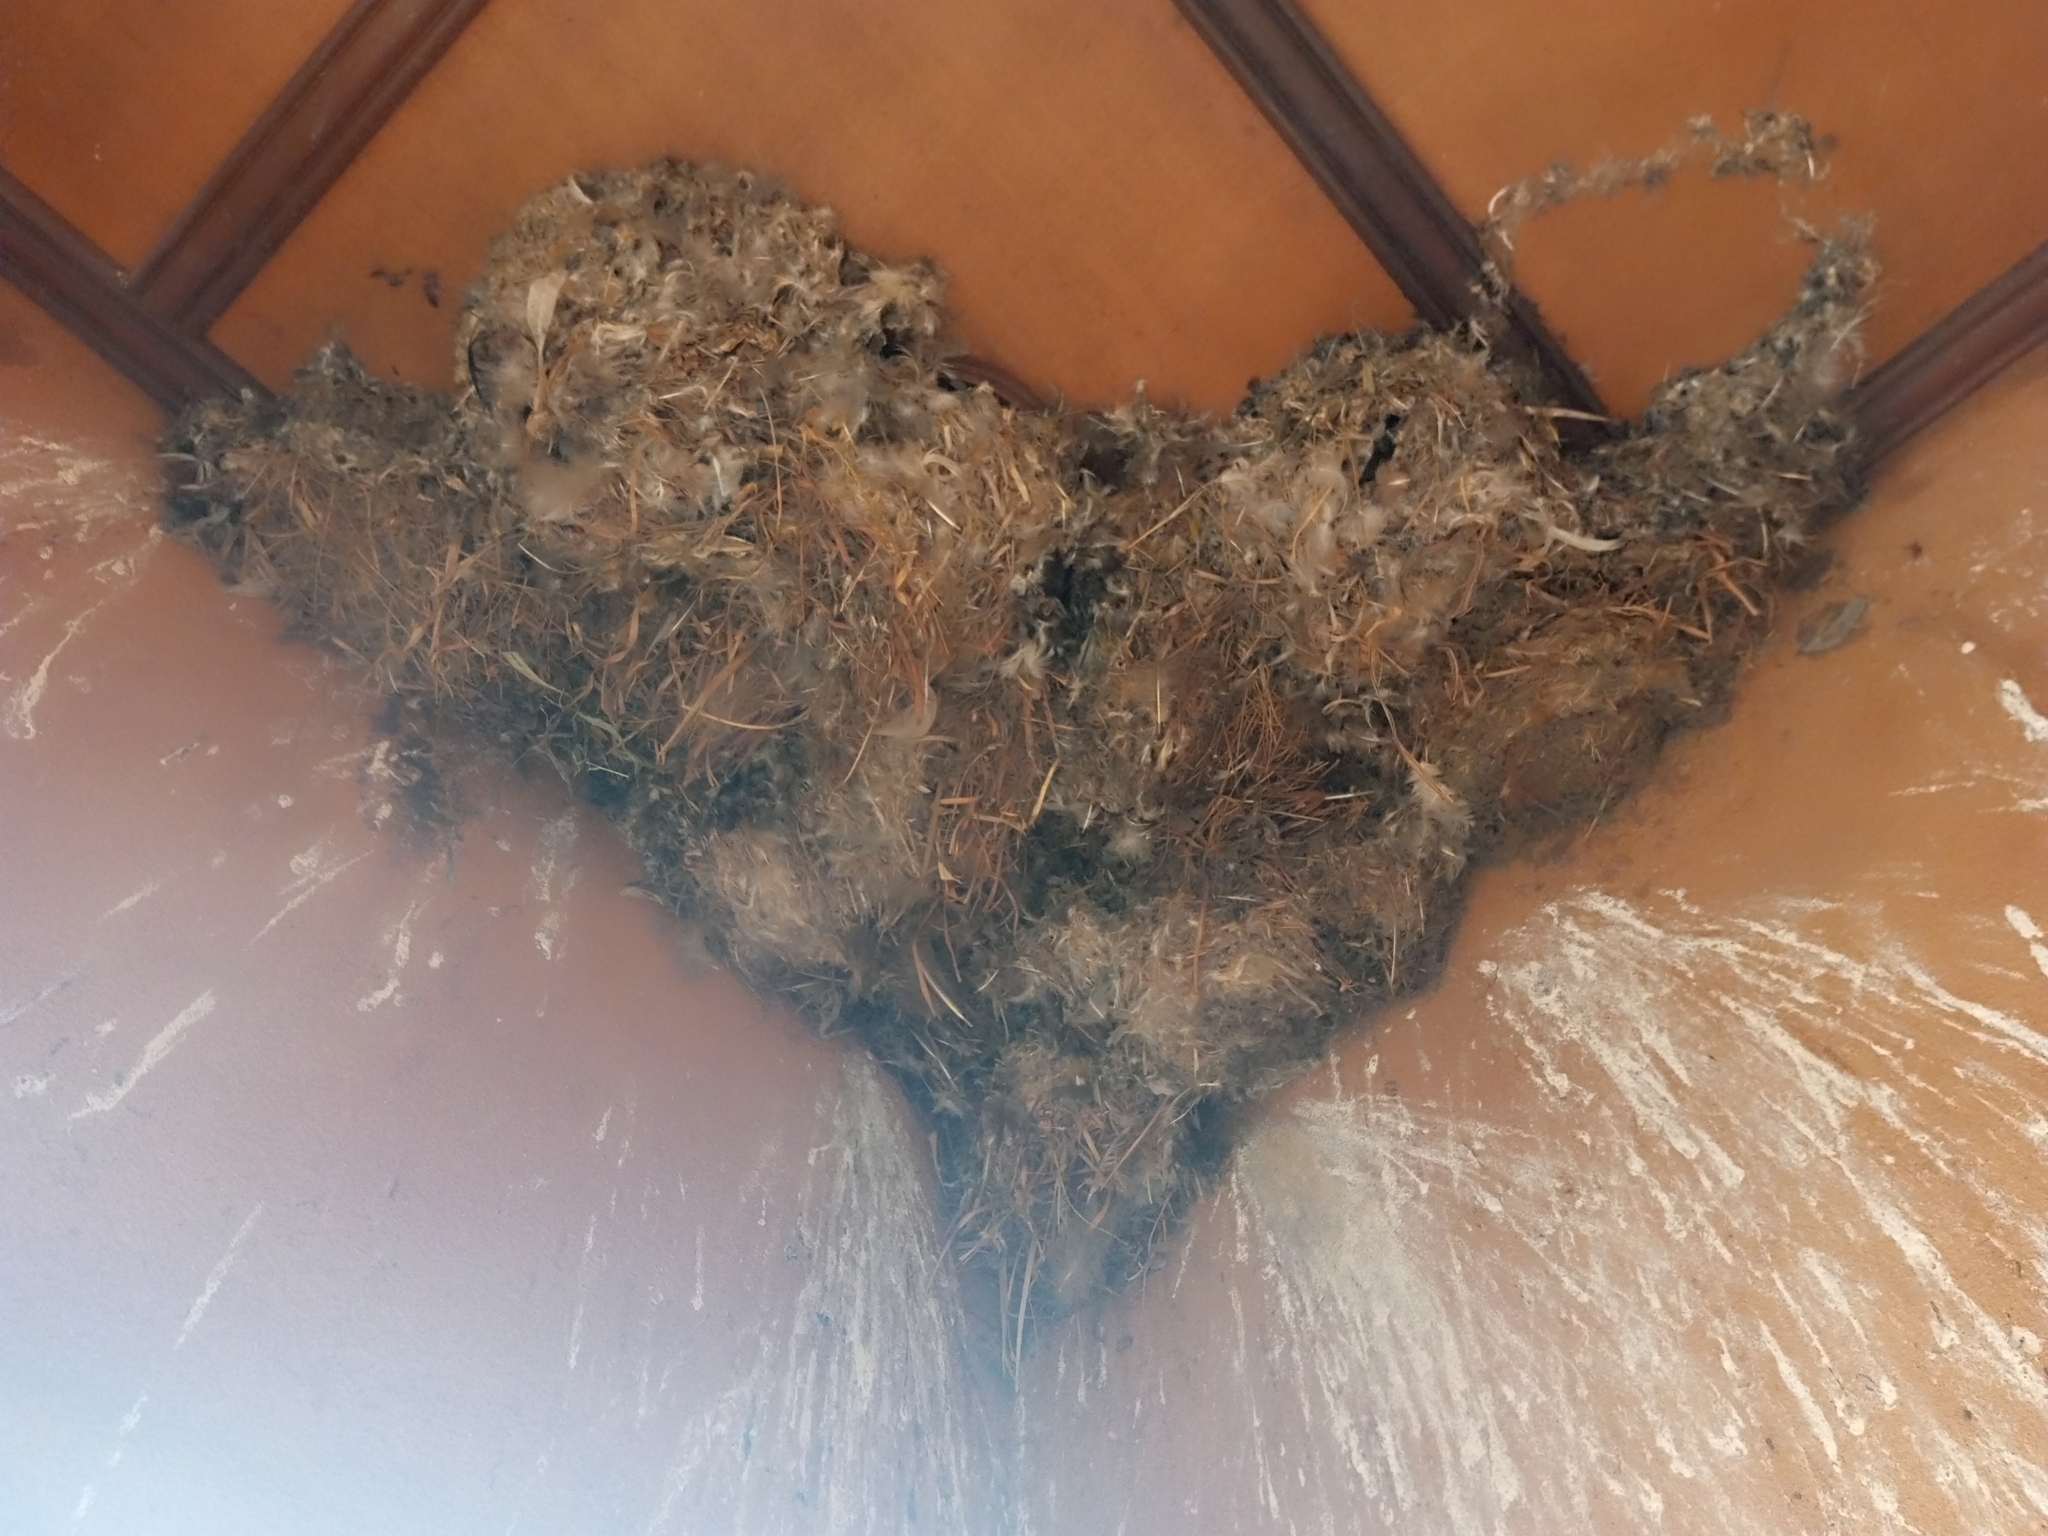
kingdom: Animalia
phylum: Chordata
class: Aves
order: Passeriformes
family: Hirundinidae
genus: Hirundo
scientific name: Hirundo rustica
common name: Barn swallow
